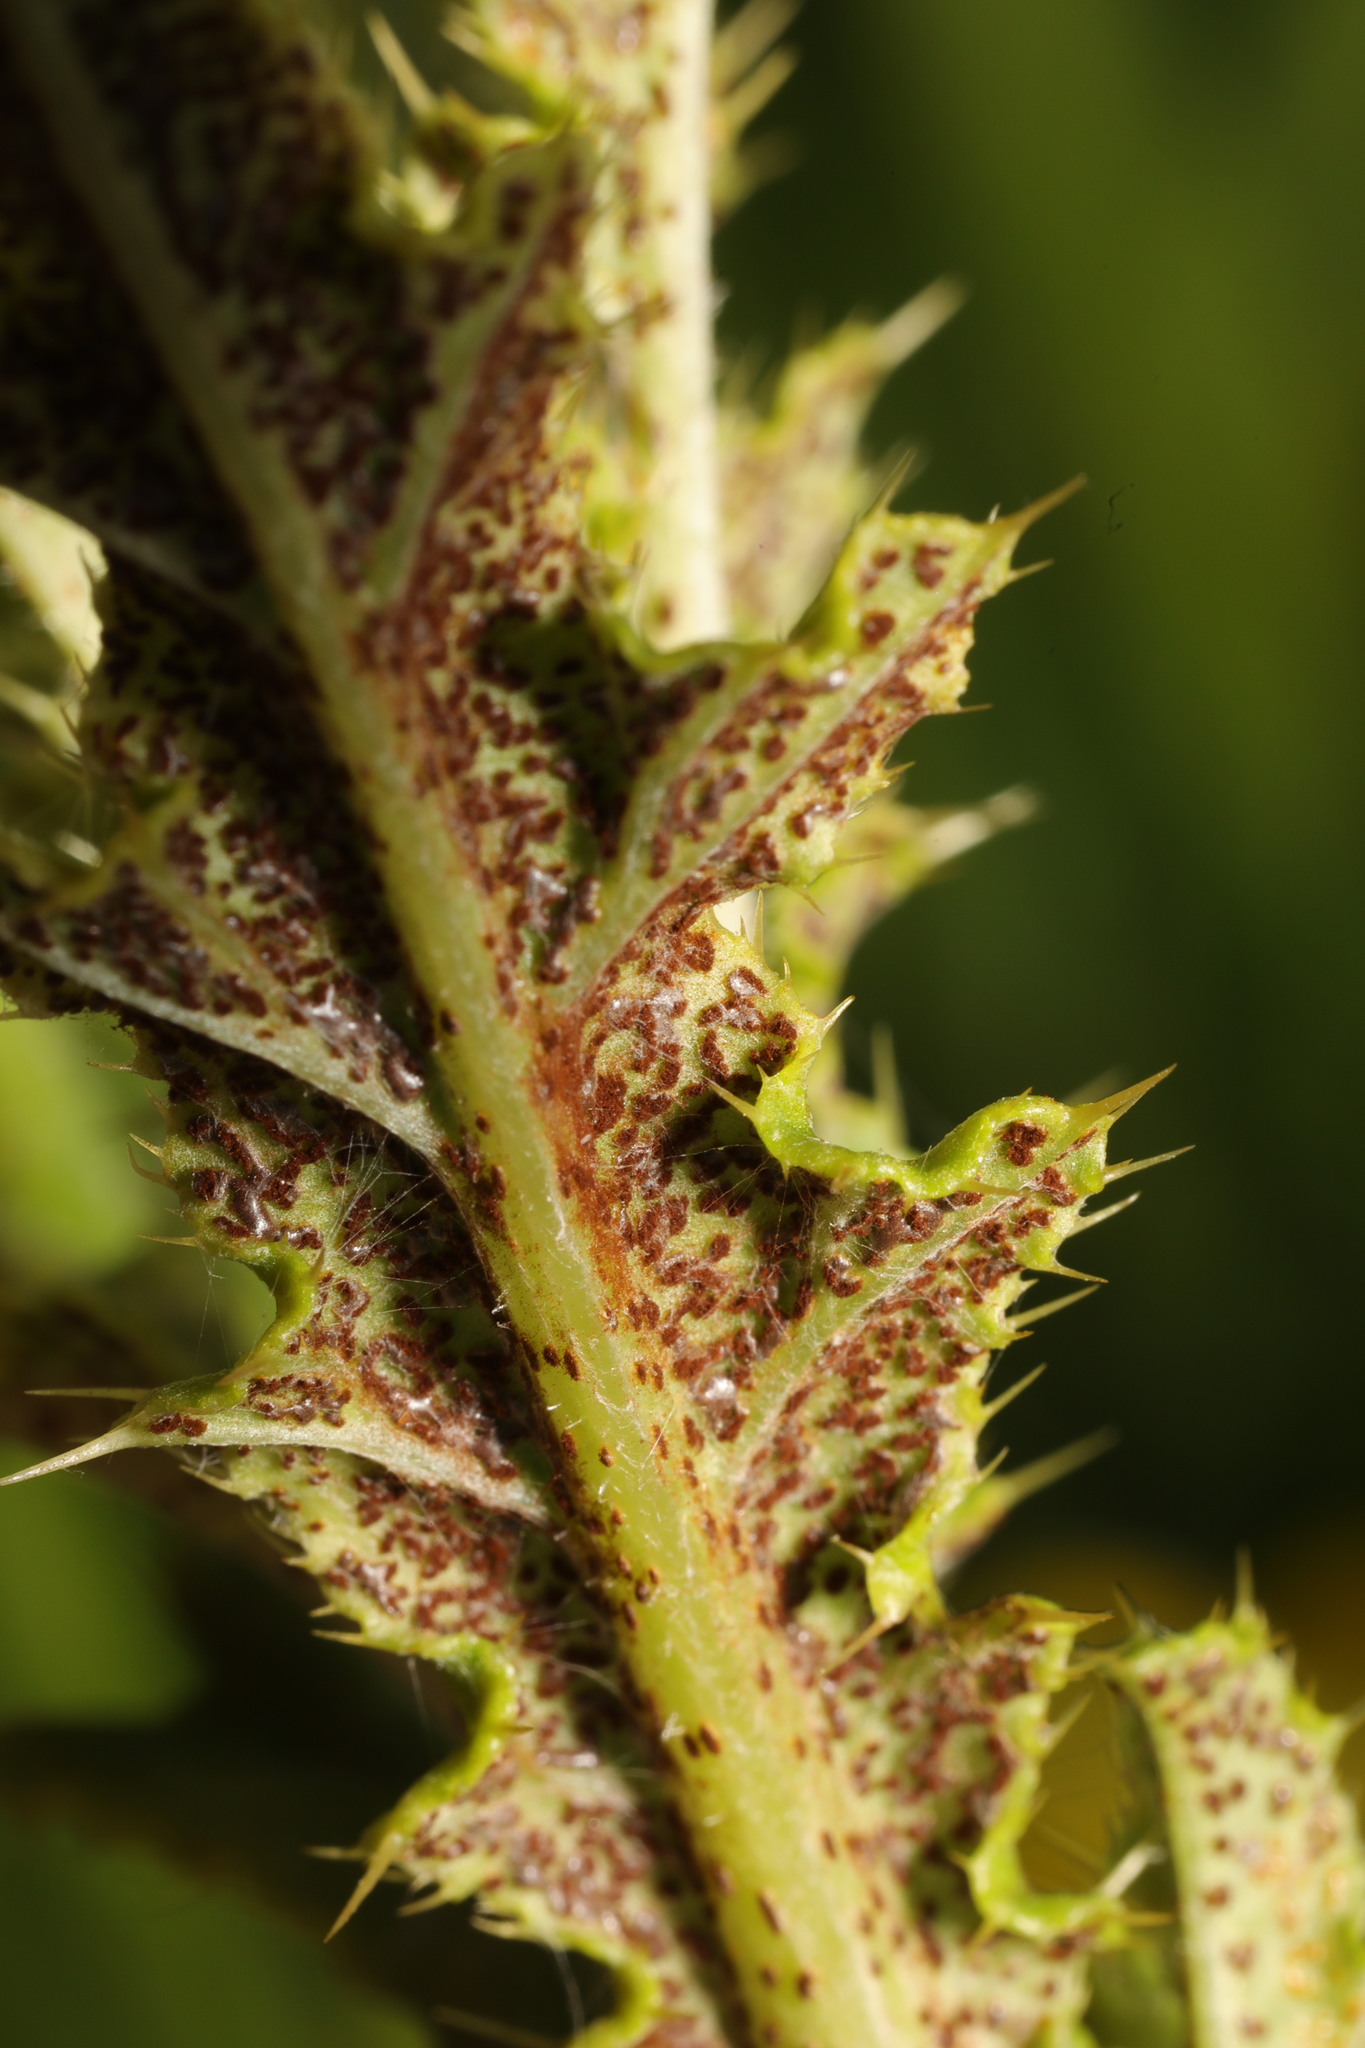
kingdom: Fungi
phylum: Basidiomycota
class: Pucciniomycetes
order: Pucciniales
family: Pucciniaceae
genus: Puccinia
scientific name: Puccinia suaveolens
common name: Thistle rust
